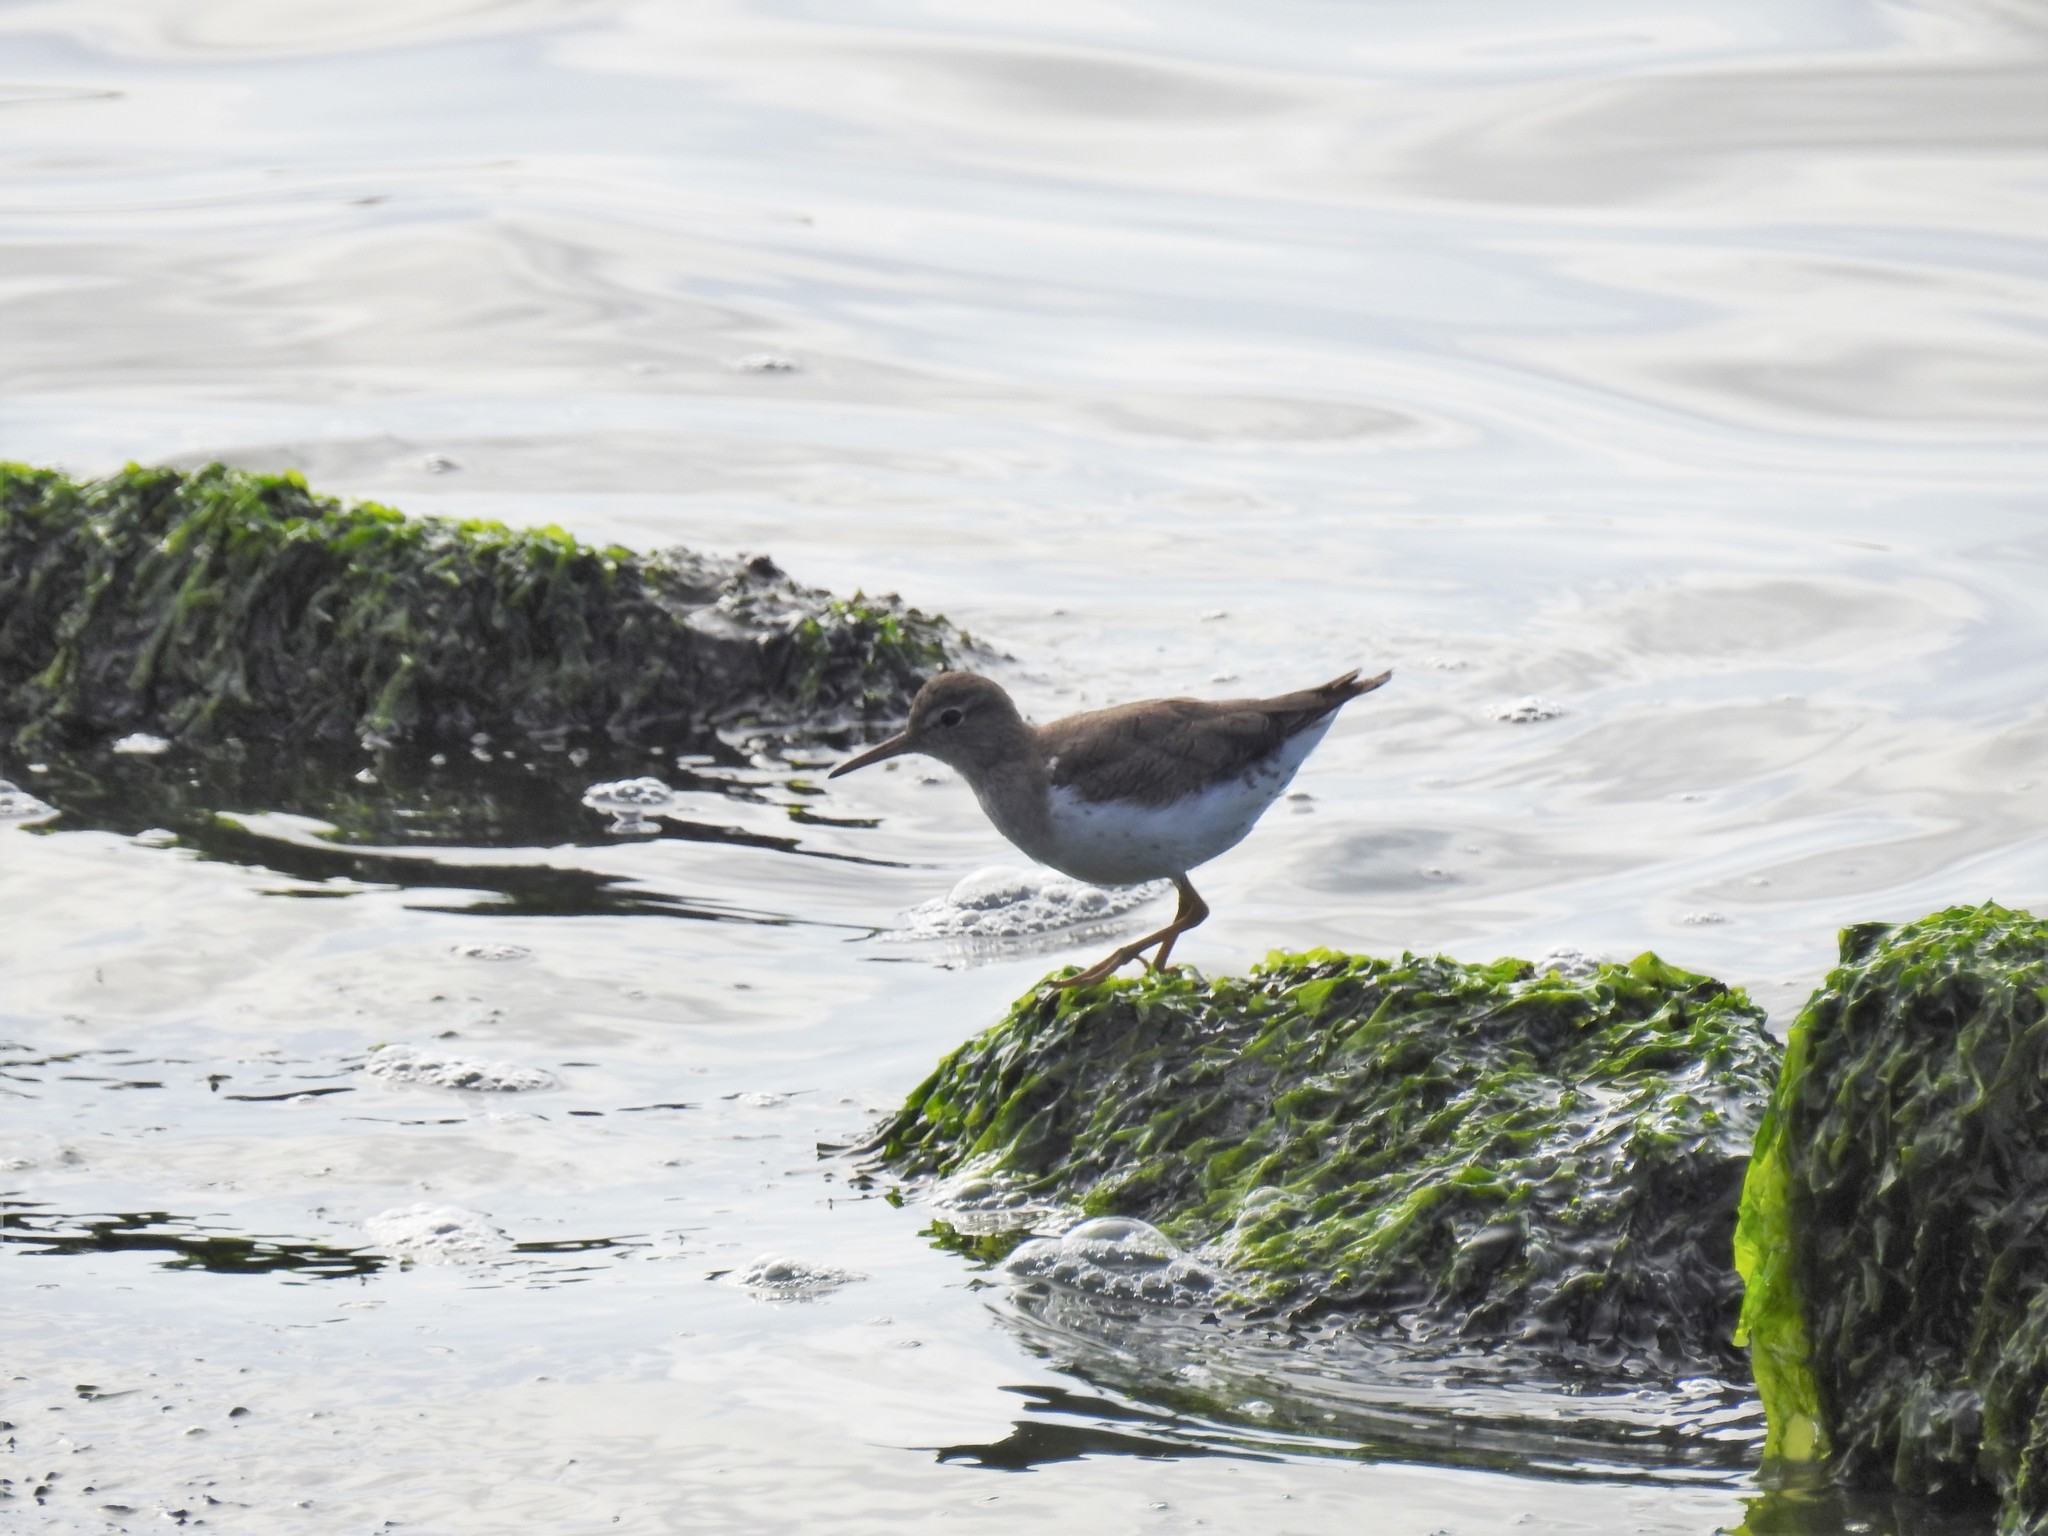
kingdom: Animalia
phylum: Chordata
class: Aves
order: Charadriiformes
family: Scolopacidae
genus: Actitis
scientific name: Actitis macularius
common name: Spotted sandpiper
